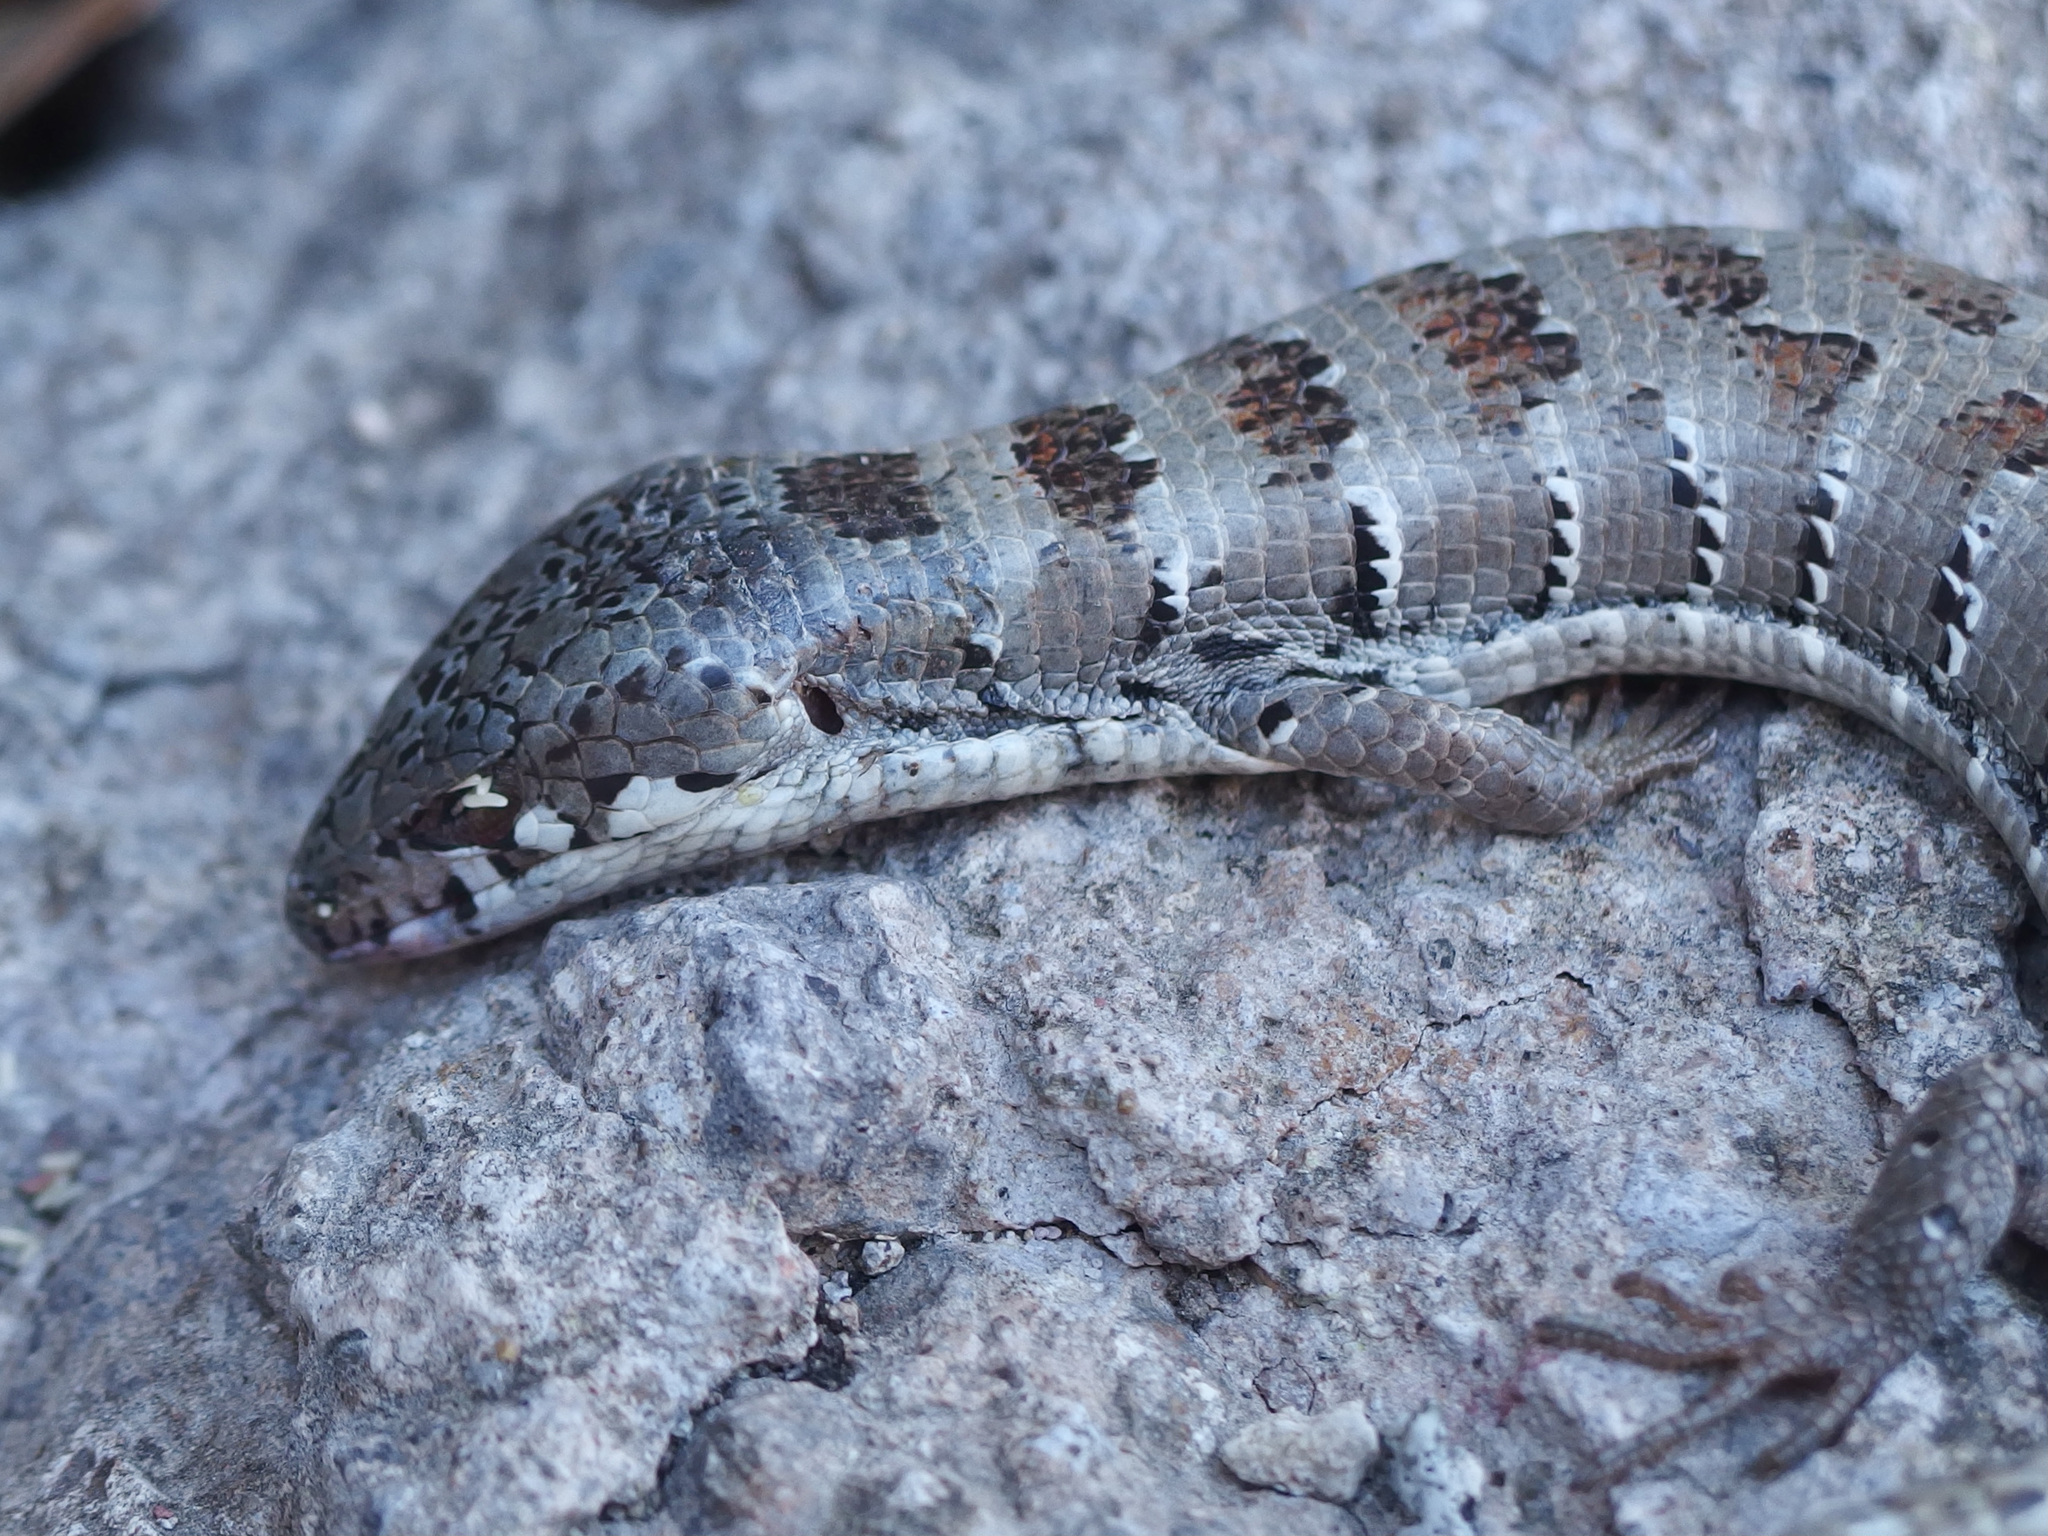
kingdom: Animalia
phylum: Chordata
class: Squamata
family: Anguidae
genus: Elgaria
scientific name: Elgaria kingii
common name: Madrean alligator lizard
